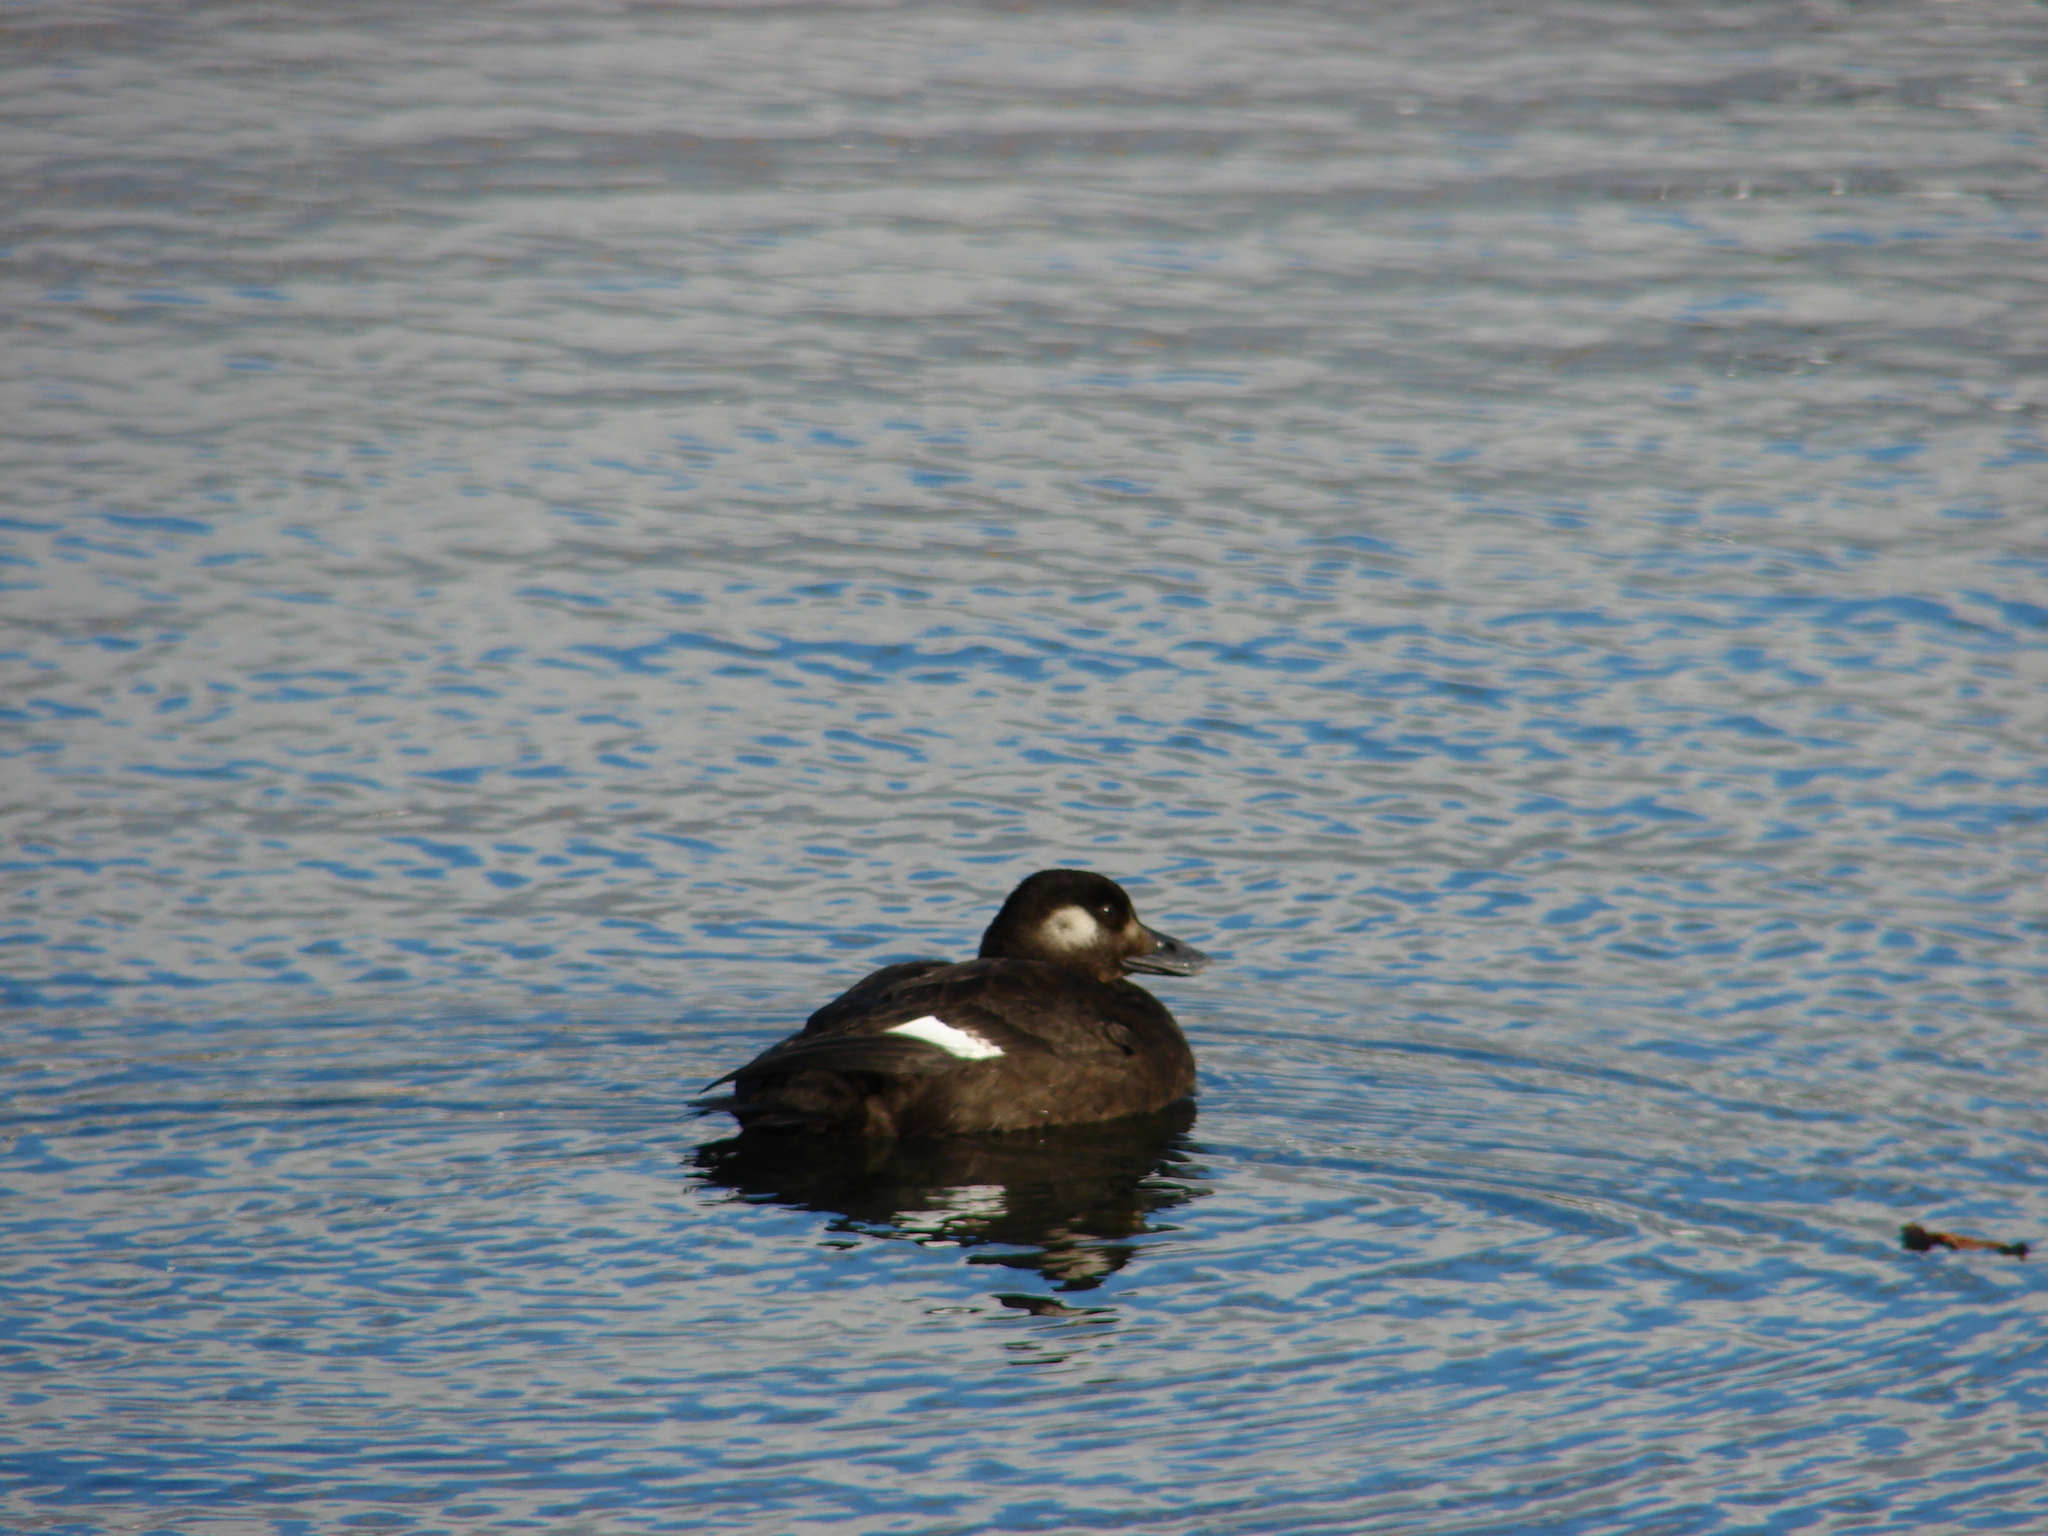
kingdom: Animalia
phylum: Chordata
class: Aves
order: Anseriformes
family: Anatidae
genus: Melanitta
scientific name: Melanitta deglandi
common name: White-winged scoter
